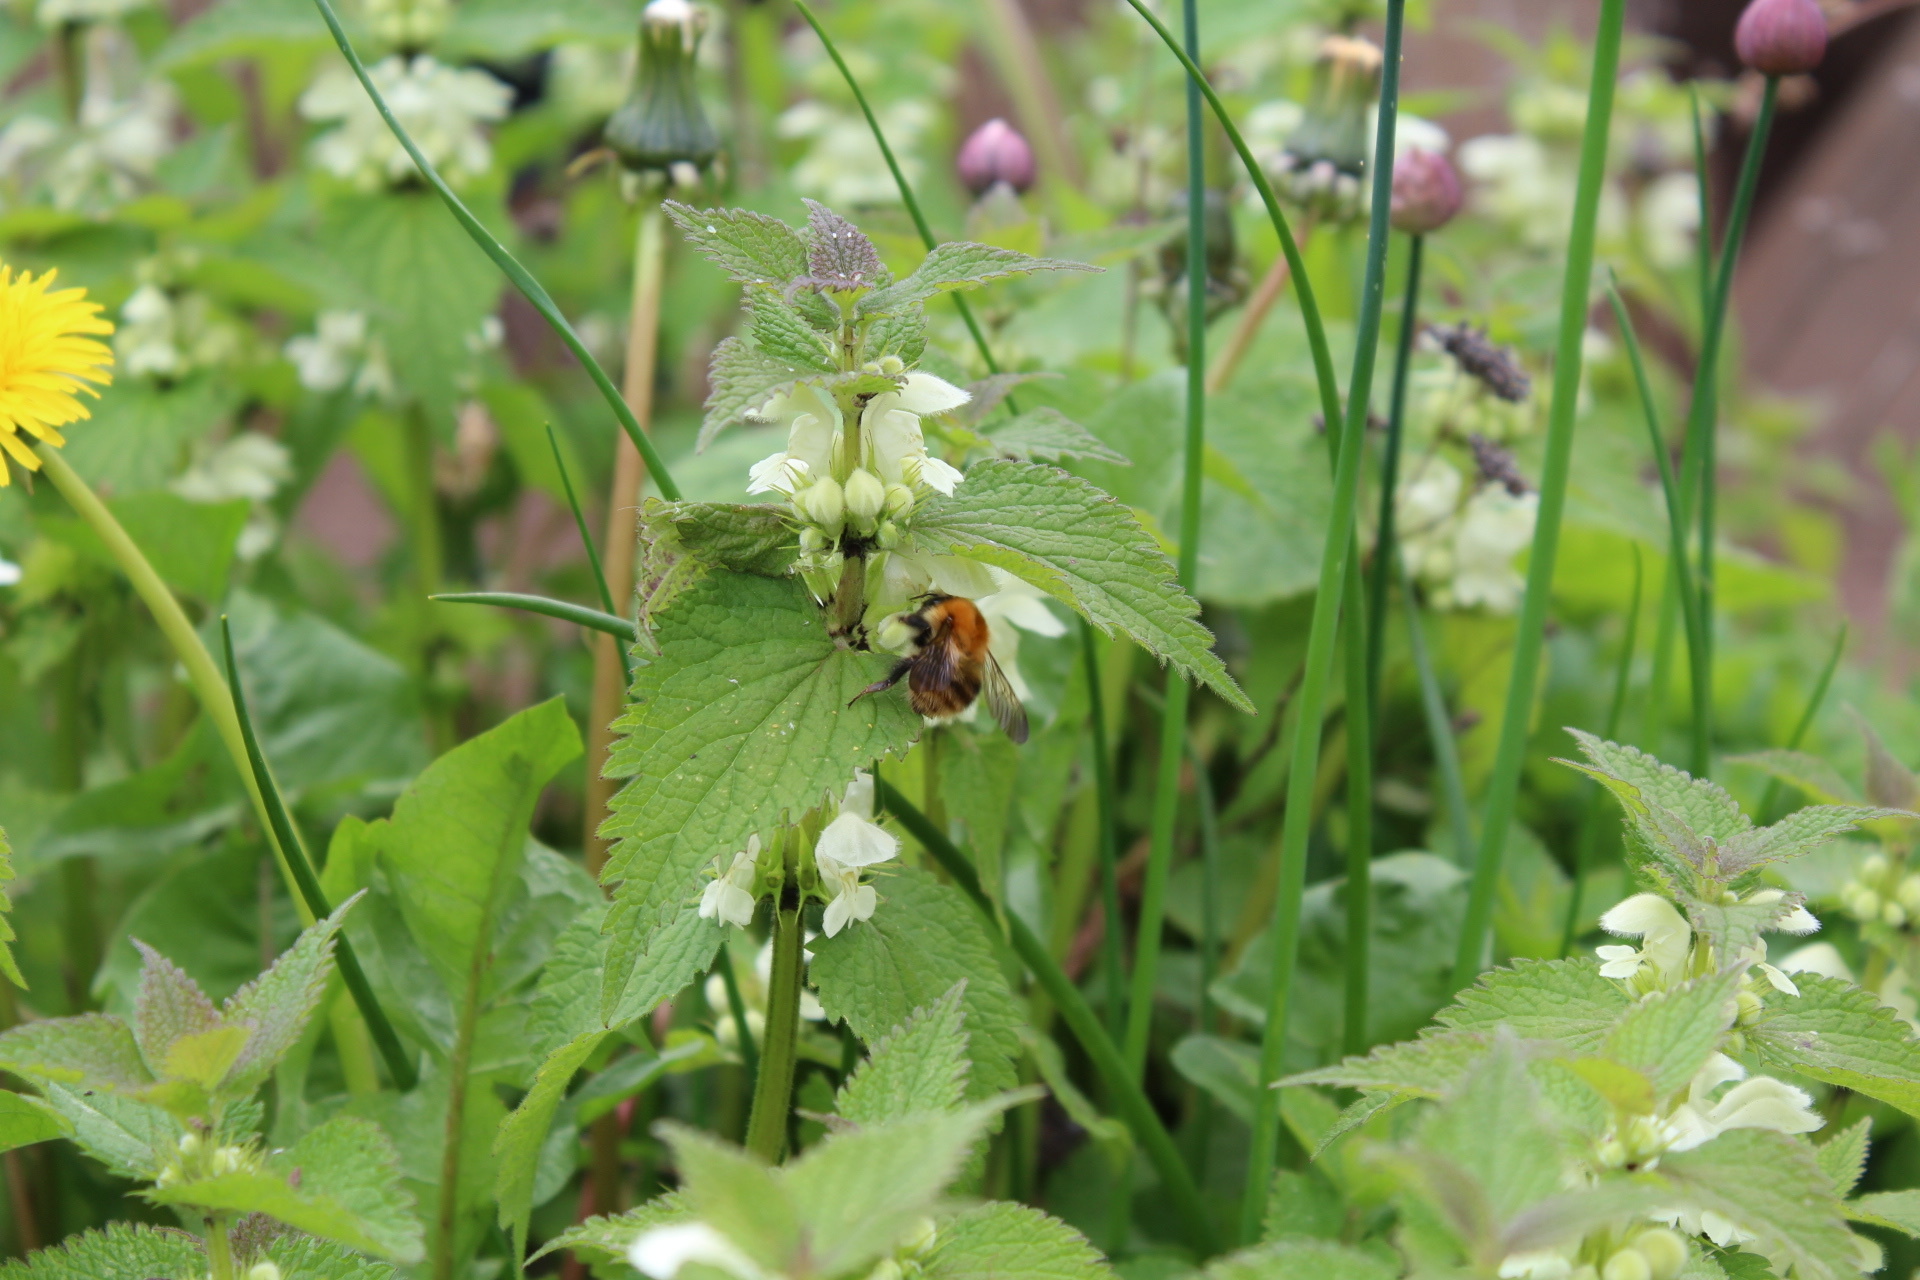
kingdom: Animalia
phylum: Arthropoda
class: Insecta
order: Hymenoptera
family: Apidae
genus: Bombus
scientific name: Bombus pascuorum
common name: Common carder bee
